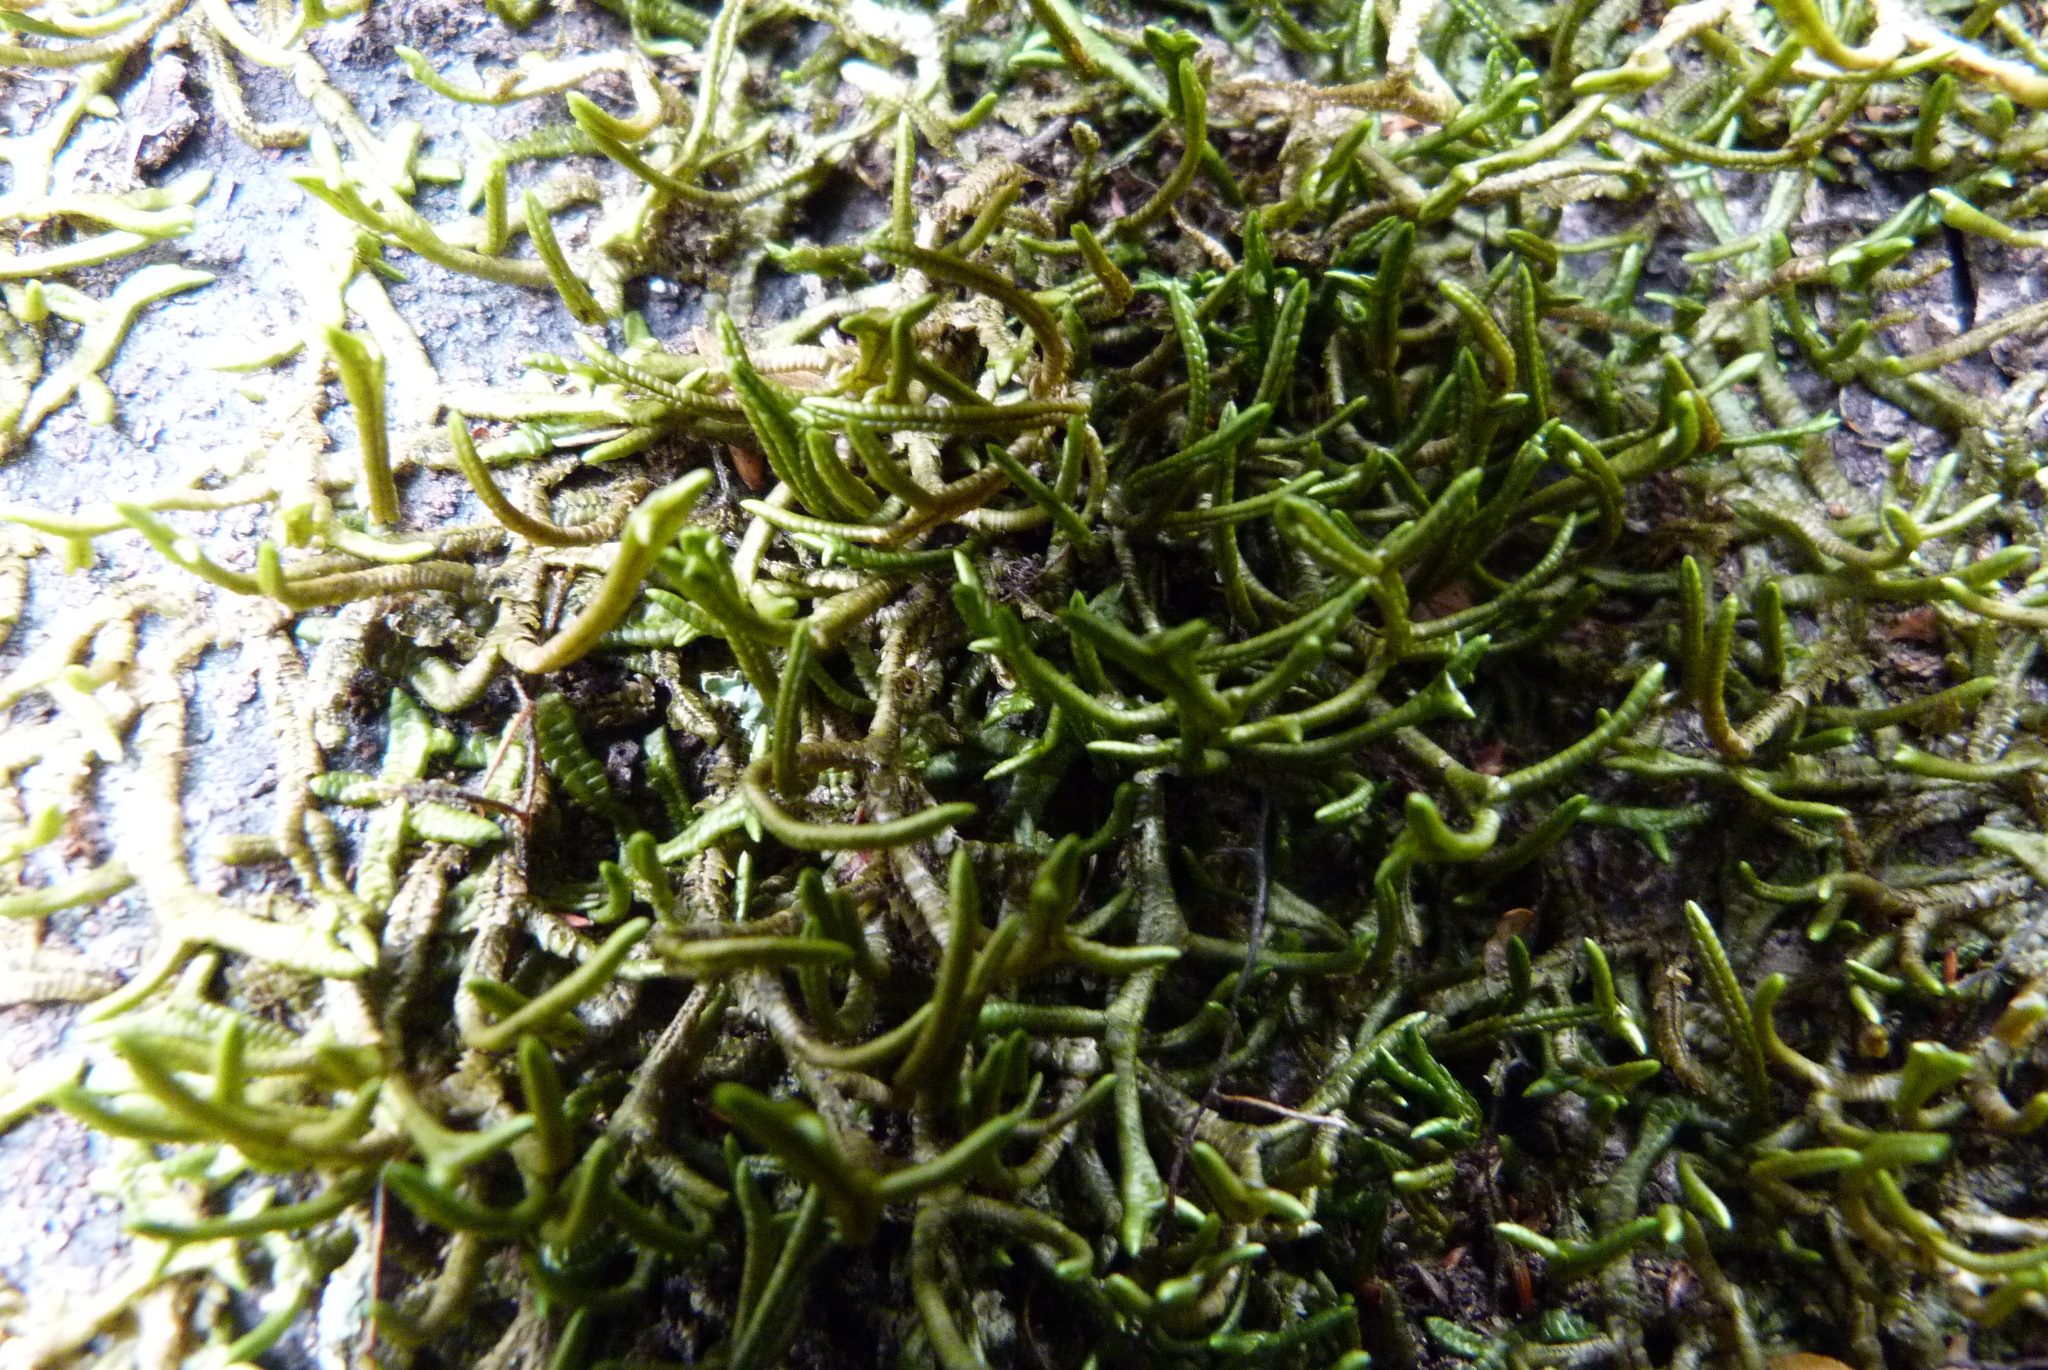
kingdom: Plantae
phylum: Marchantiophyta
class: Jungermanniopsida
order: Porellales
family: Porellaceae
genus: Porella
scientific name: Porella elegantula
